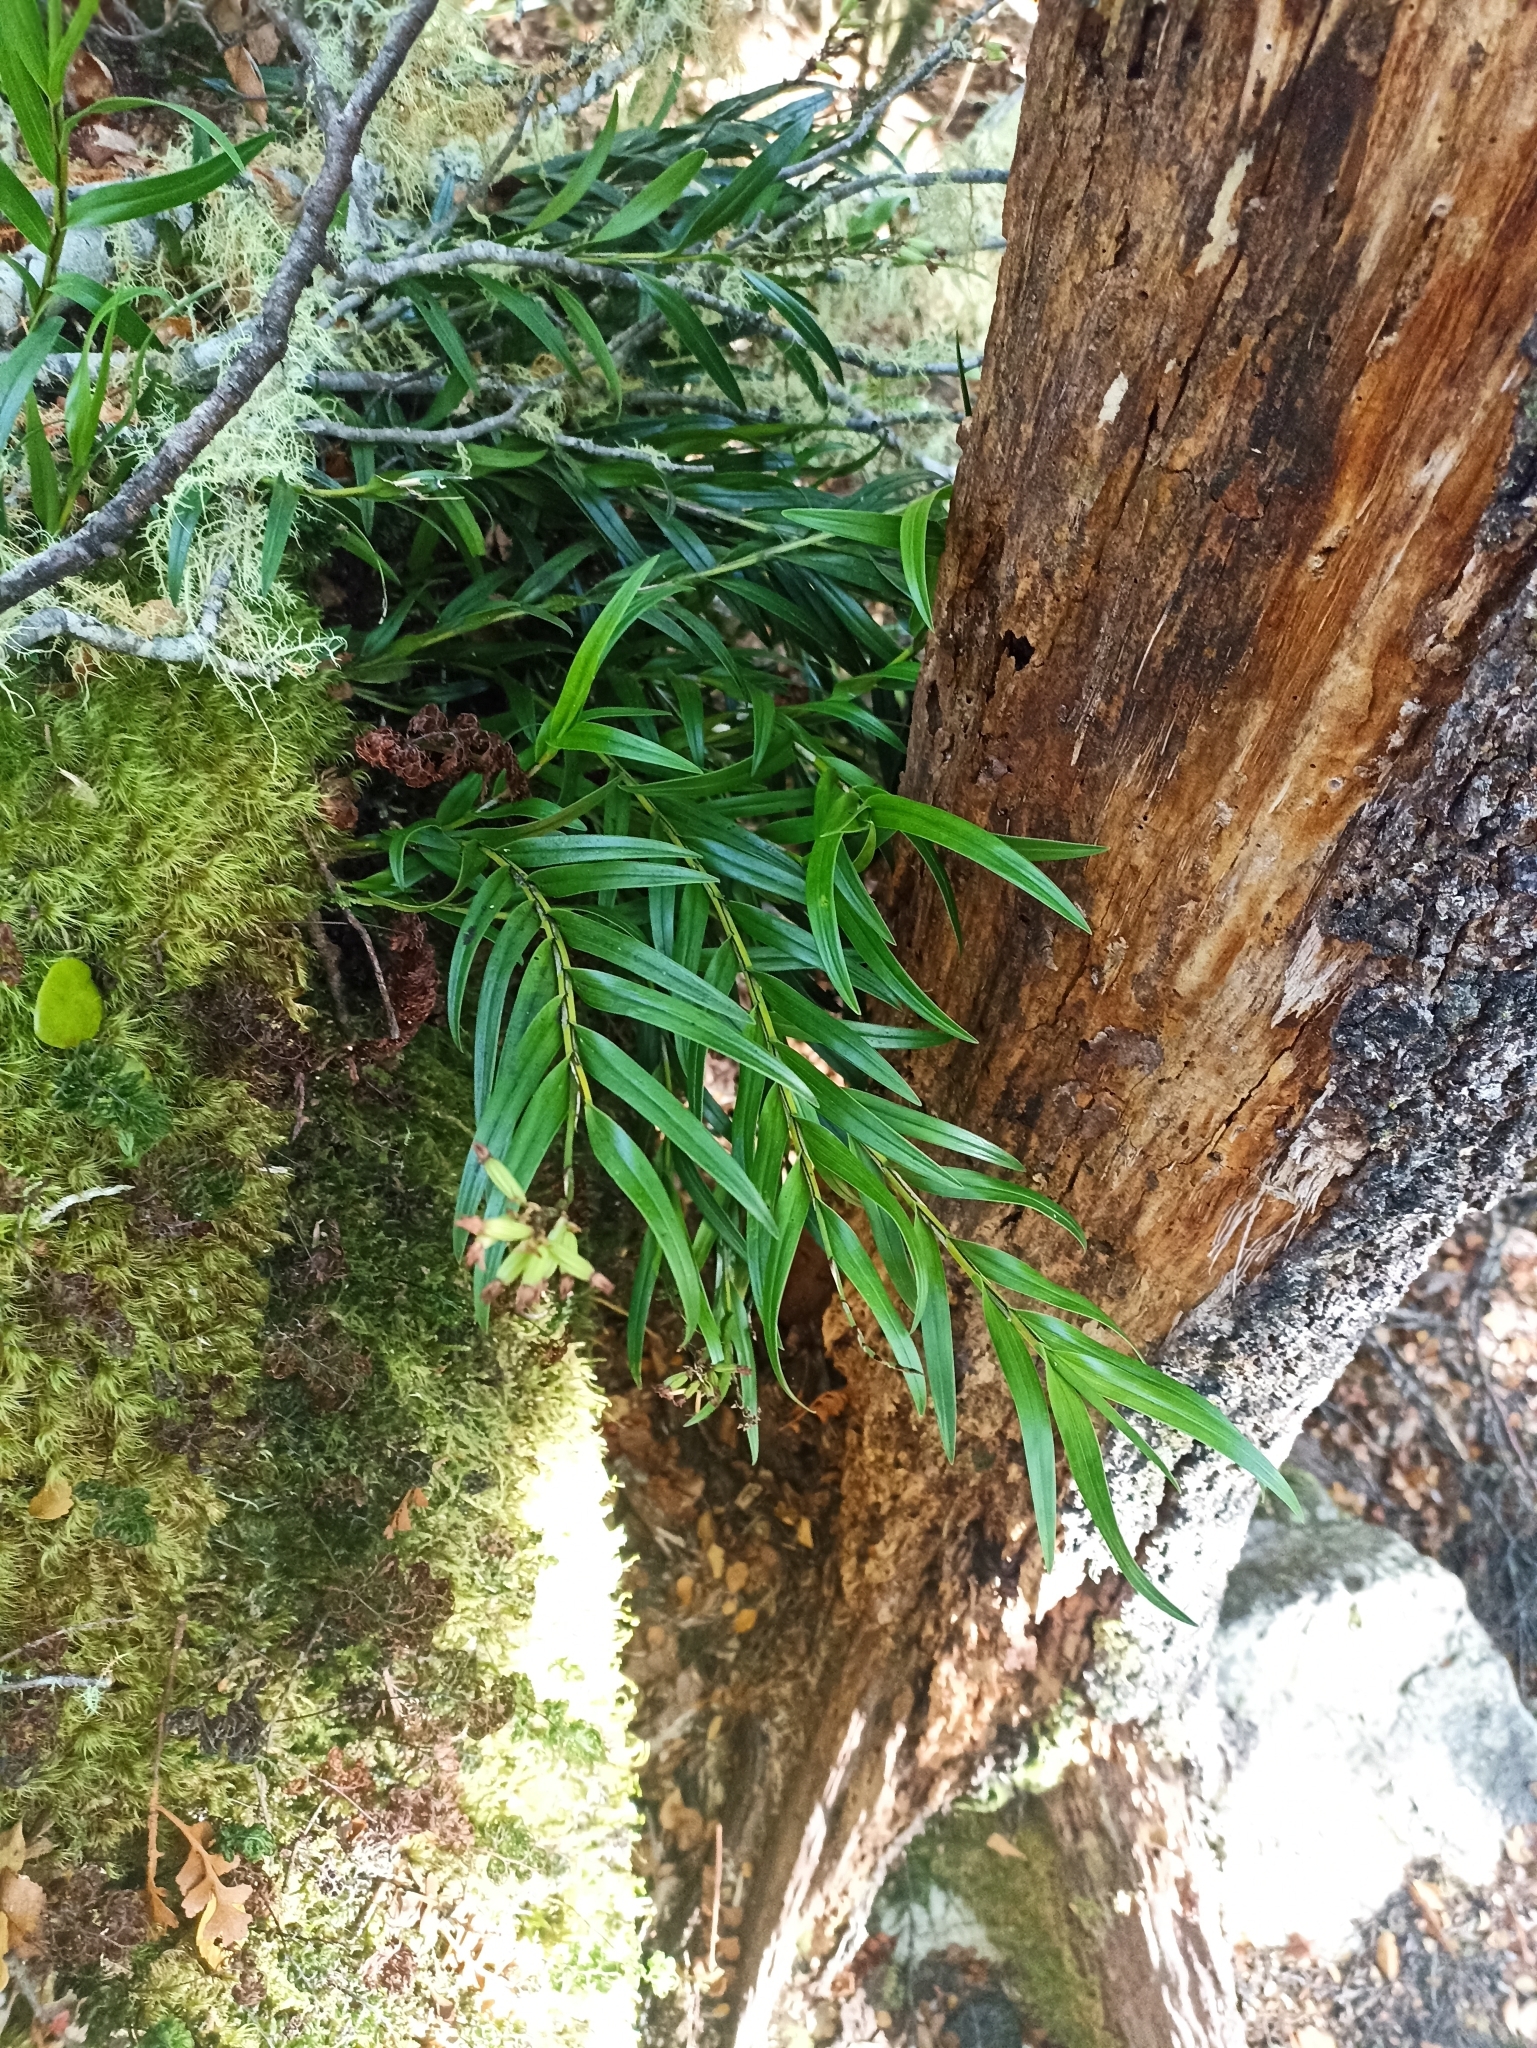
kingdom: Plantae
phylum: Tracheophyta
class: Liliopsida
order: Asparagales
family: Orchidaceae
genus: Earina
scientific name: Earina autumnalis
